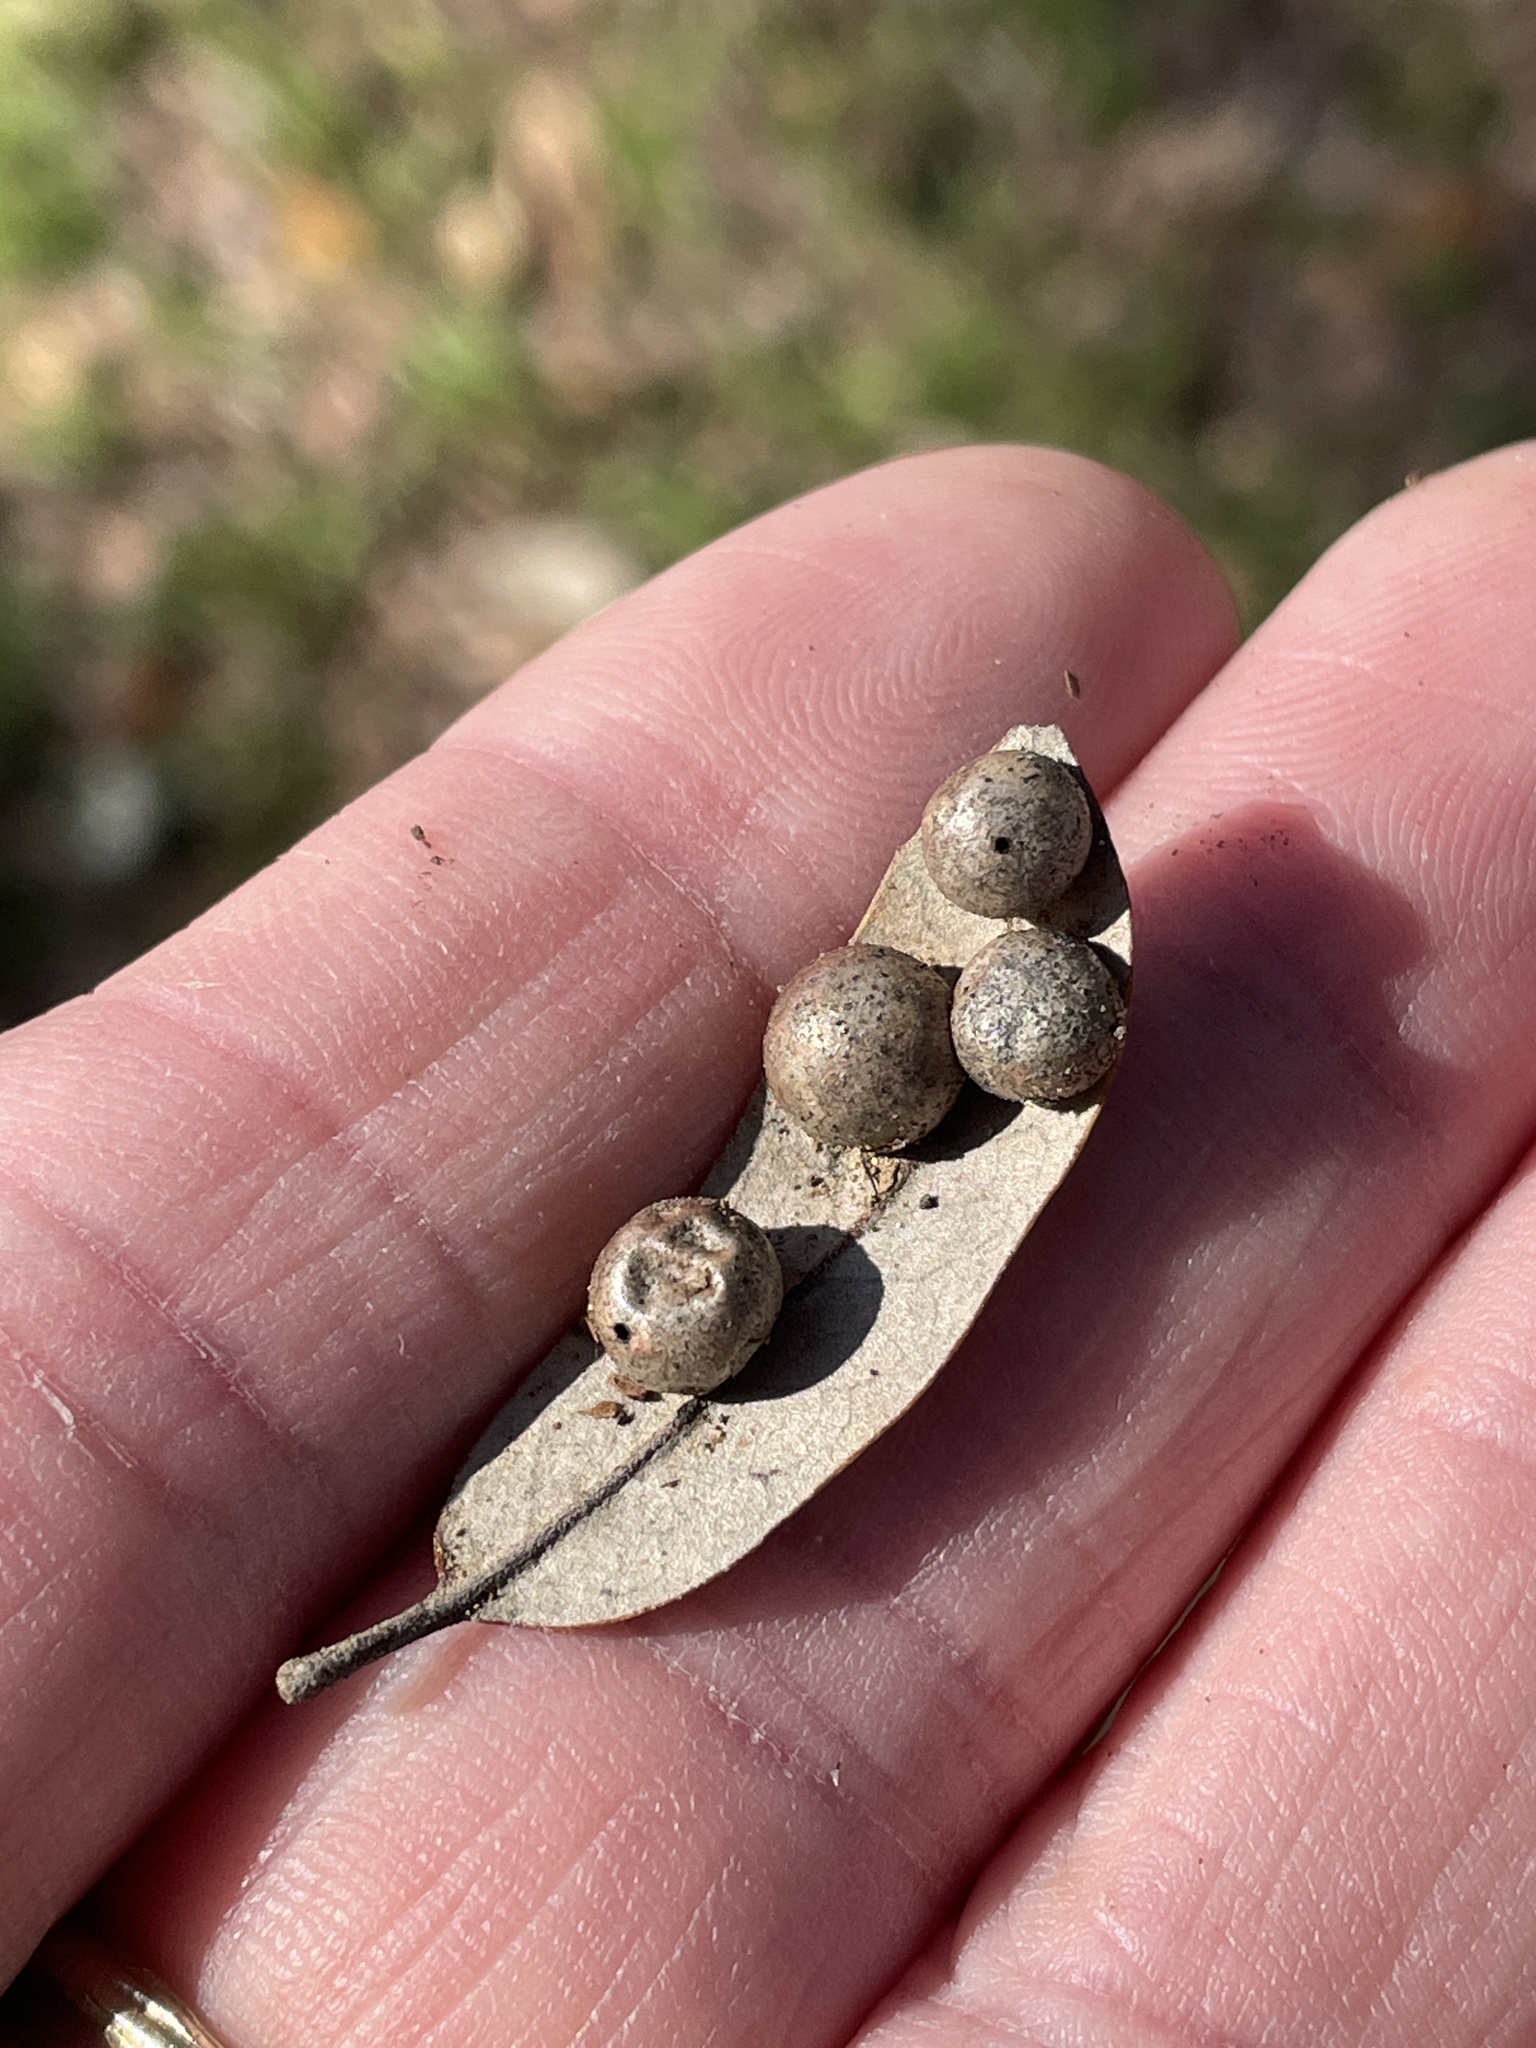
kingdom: Animalia
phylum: Arthropoda
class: Insecta
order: Hymenoptera
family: Cynipidae
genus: Belonocnema
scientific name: Belonocnema kinseyi
